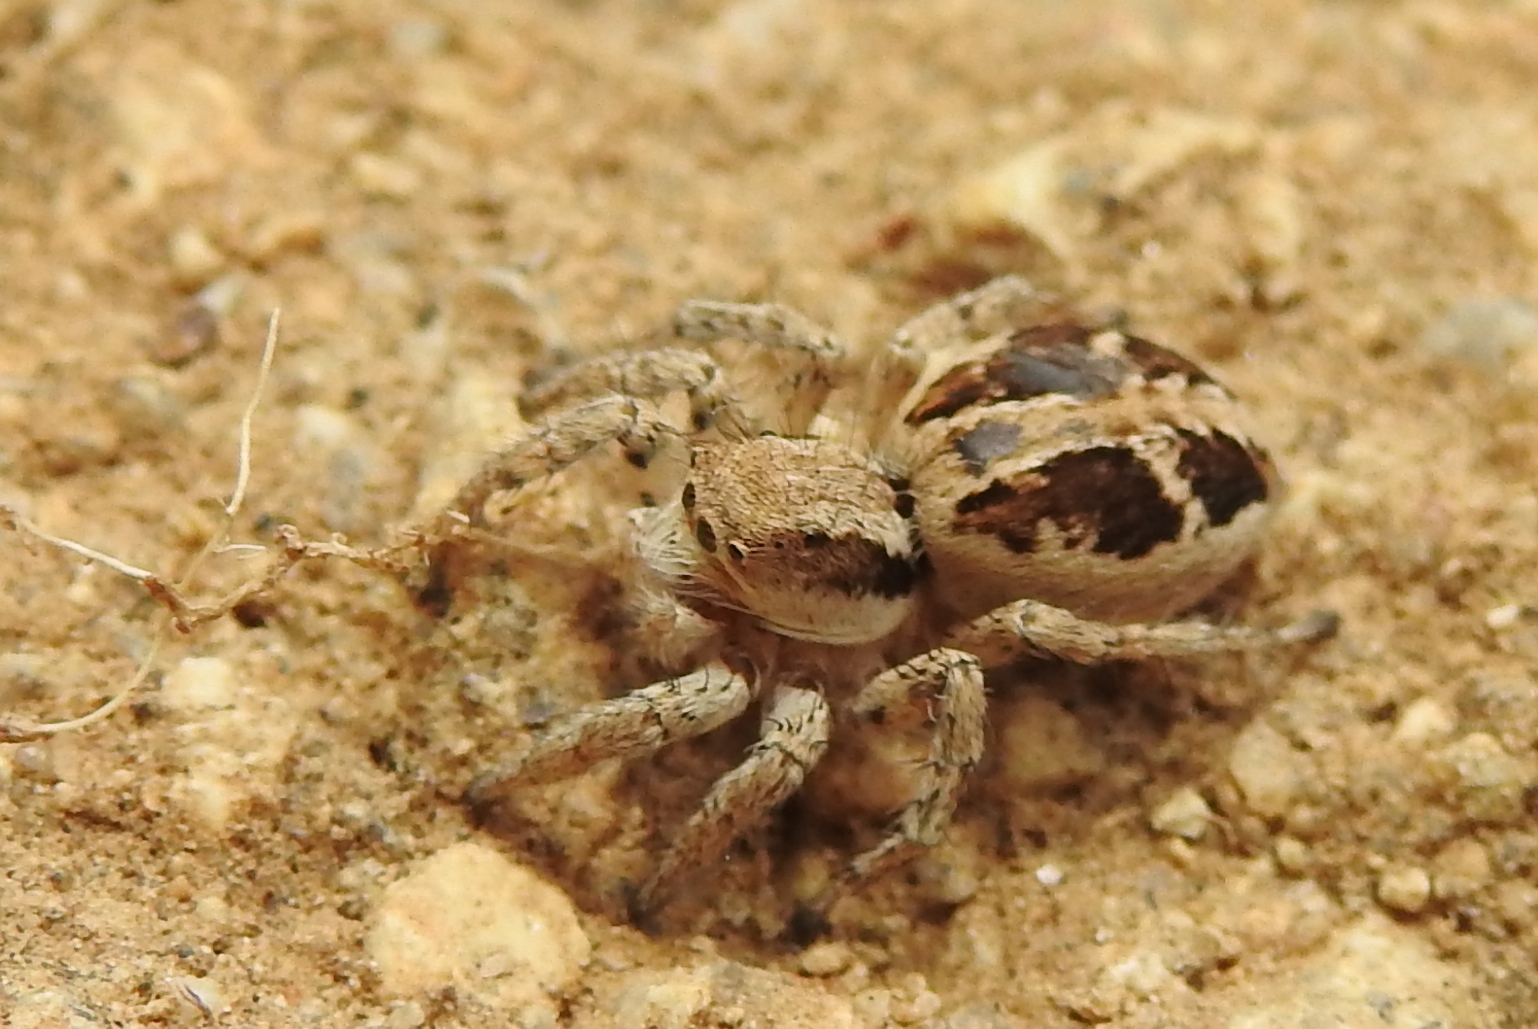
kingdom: Animalia
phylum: Arthropoda
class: Arachnida
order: Araneae
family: Salticidae
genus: Langona
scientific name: Langona tigrina
